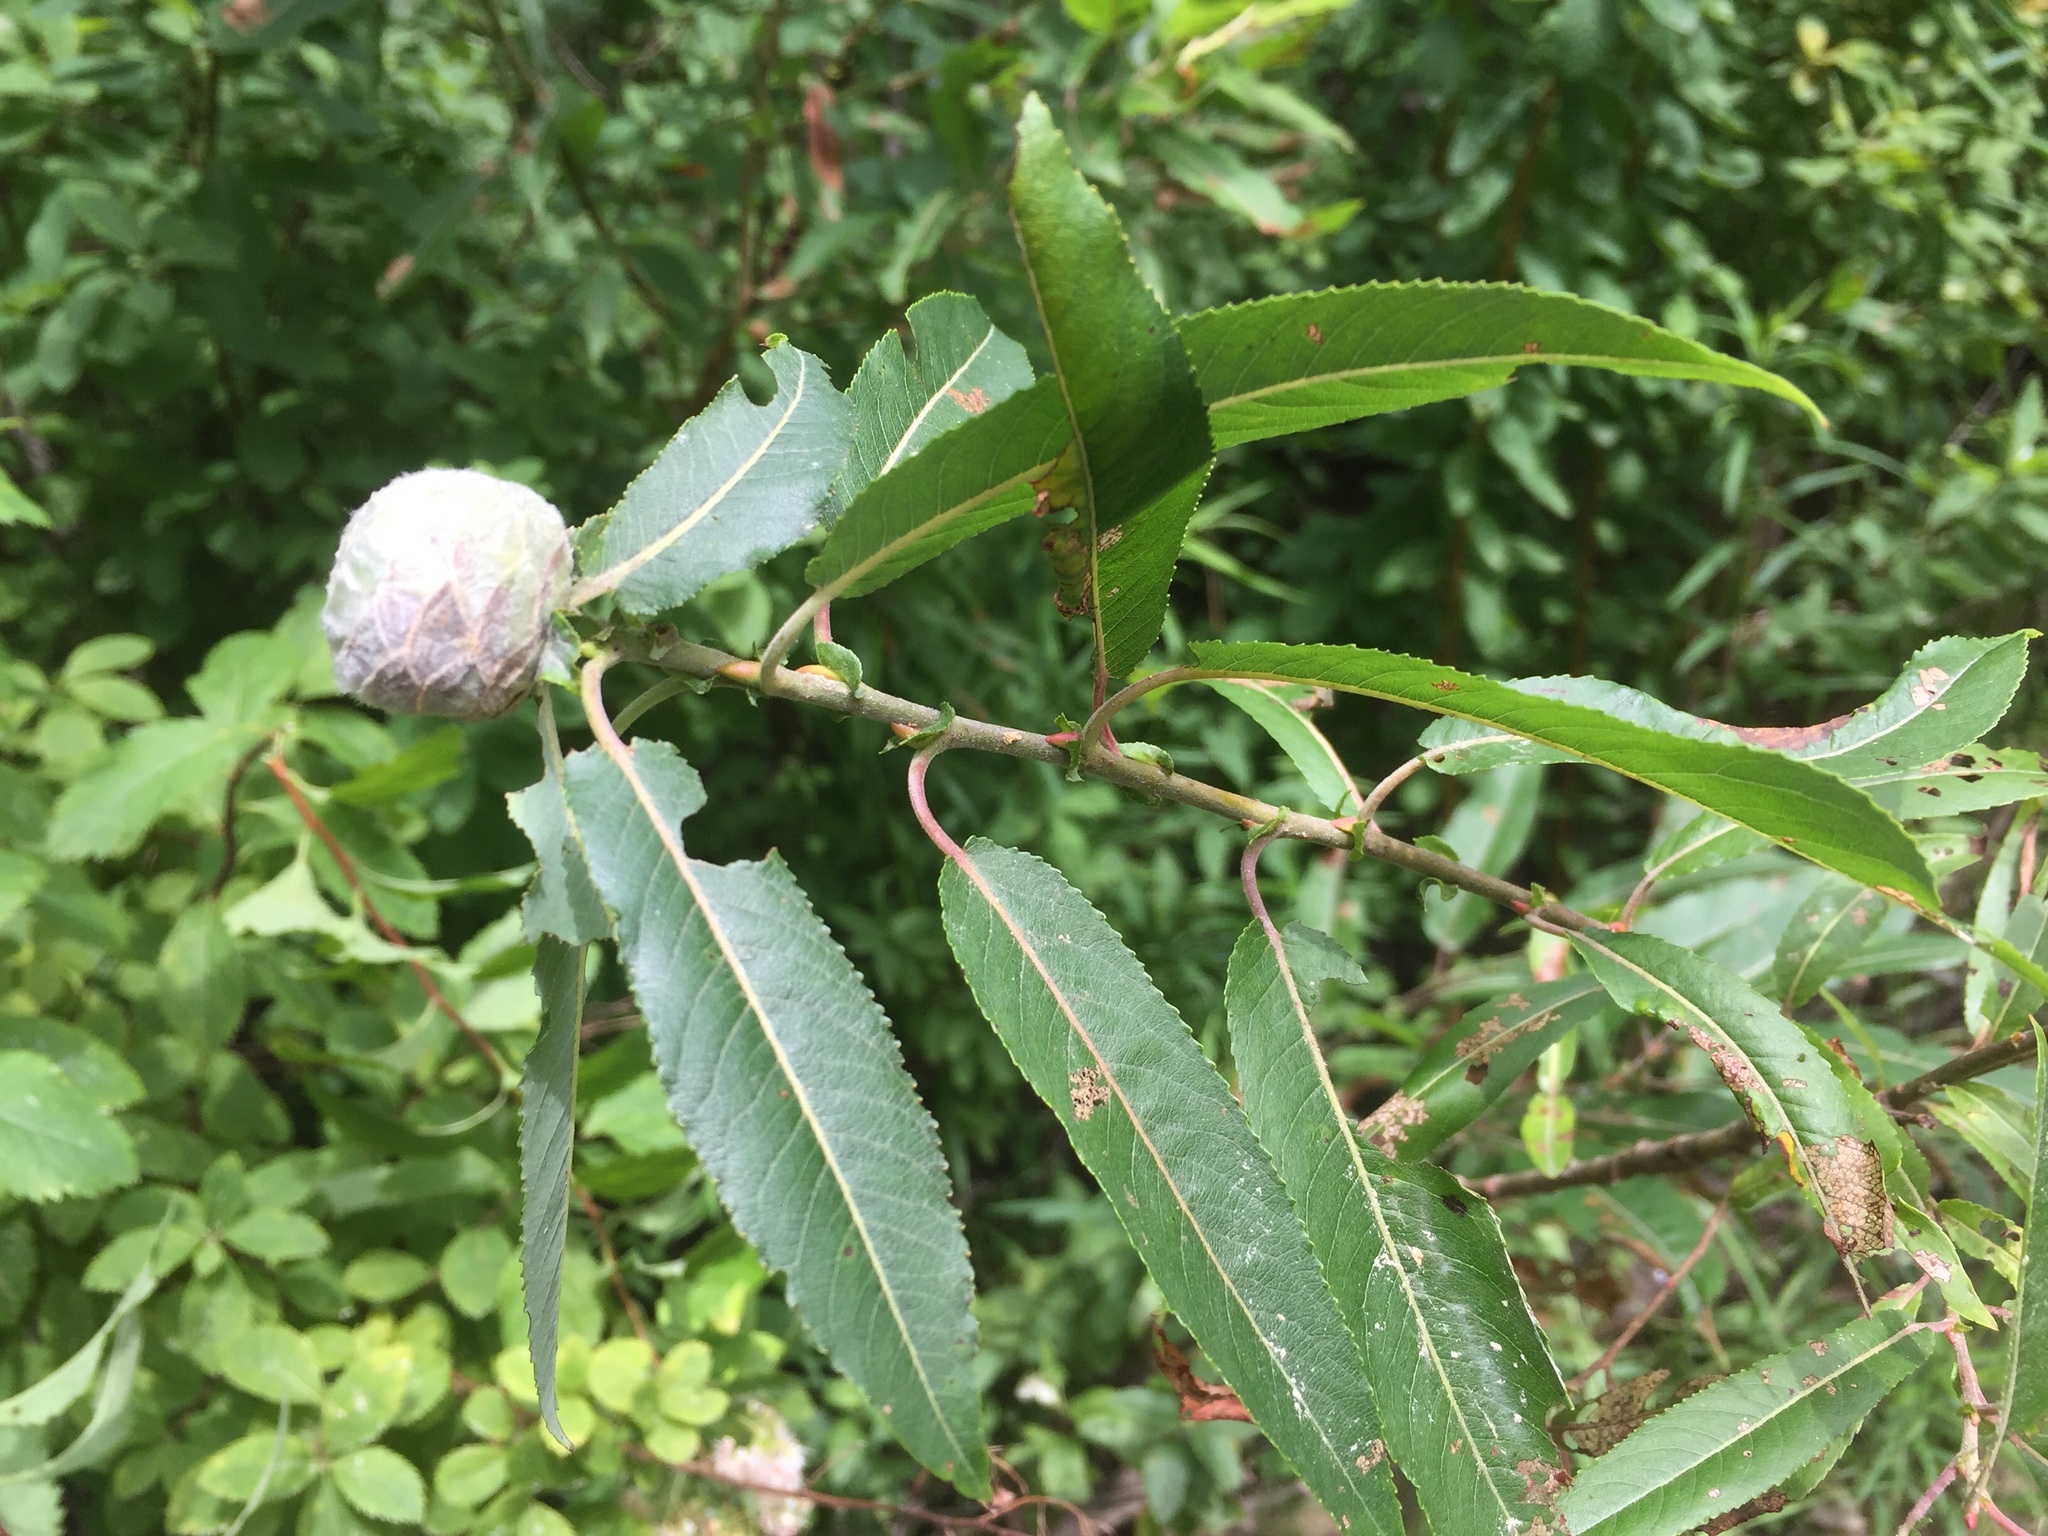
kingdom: Animalia
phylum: Arthropoda
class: Insecta
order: Diptera
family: Cecidomyiidae
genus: Rabdophaga
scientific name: Rabdophaga strobiloides
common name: Willow pinecone gall midge
